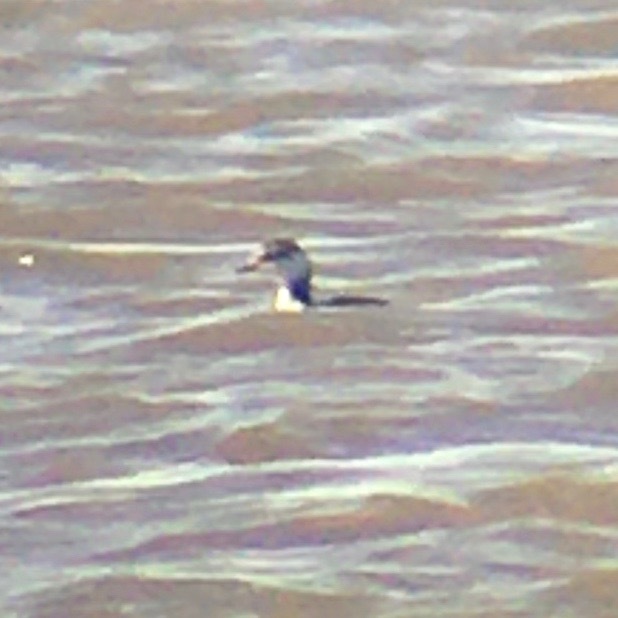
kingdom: Animalia
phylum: Chordata
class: Aves
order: Podicipediformes
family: Podicipedidae
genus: Podiceps
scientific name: Podiceps auritus
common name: Horned grebe
